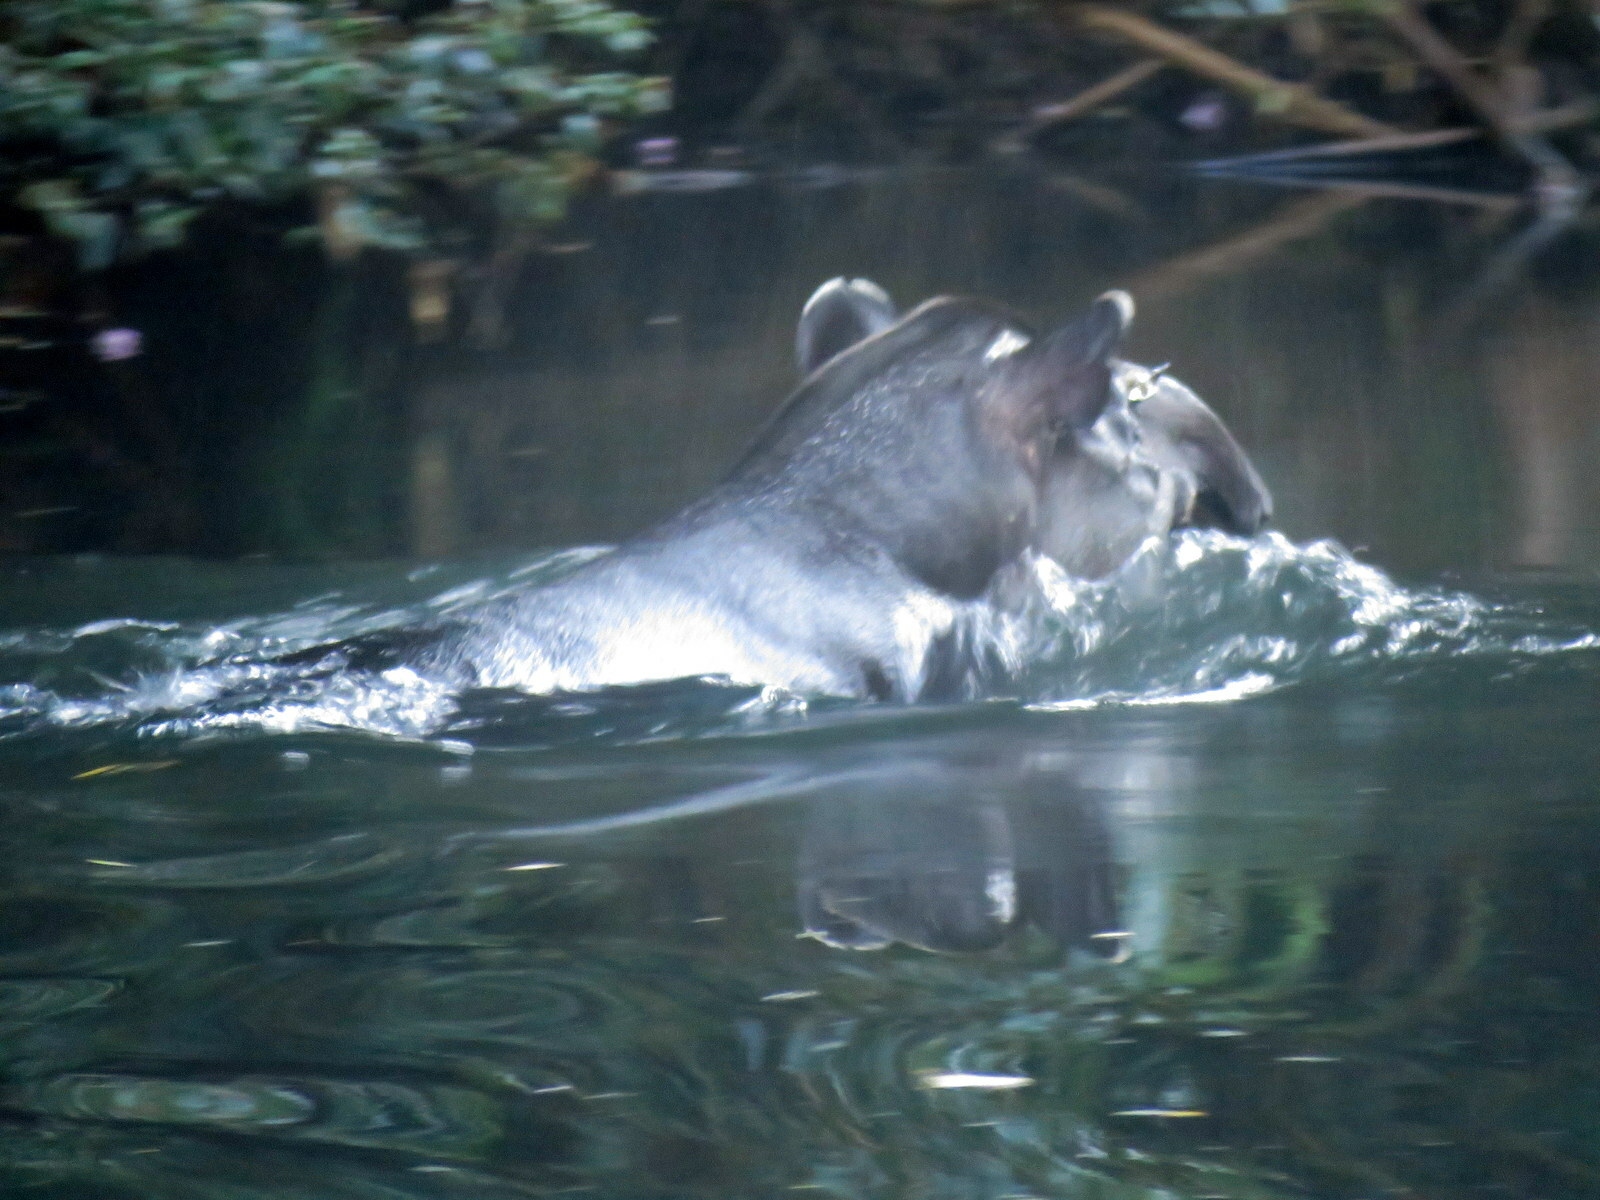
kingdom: Animalia
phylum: Chordata
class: Mammalia
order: Perissodactyla
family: Tapiridae
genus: Tapirus
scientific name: Tapirus terrestris
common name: Brazilian tapir
